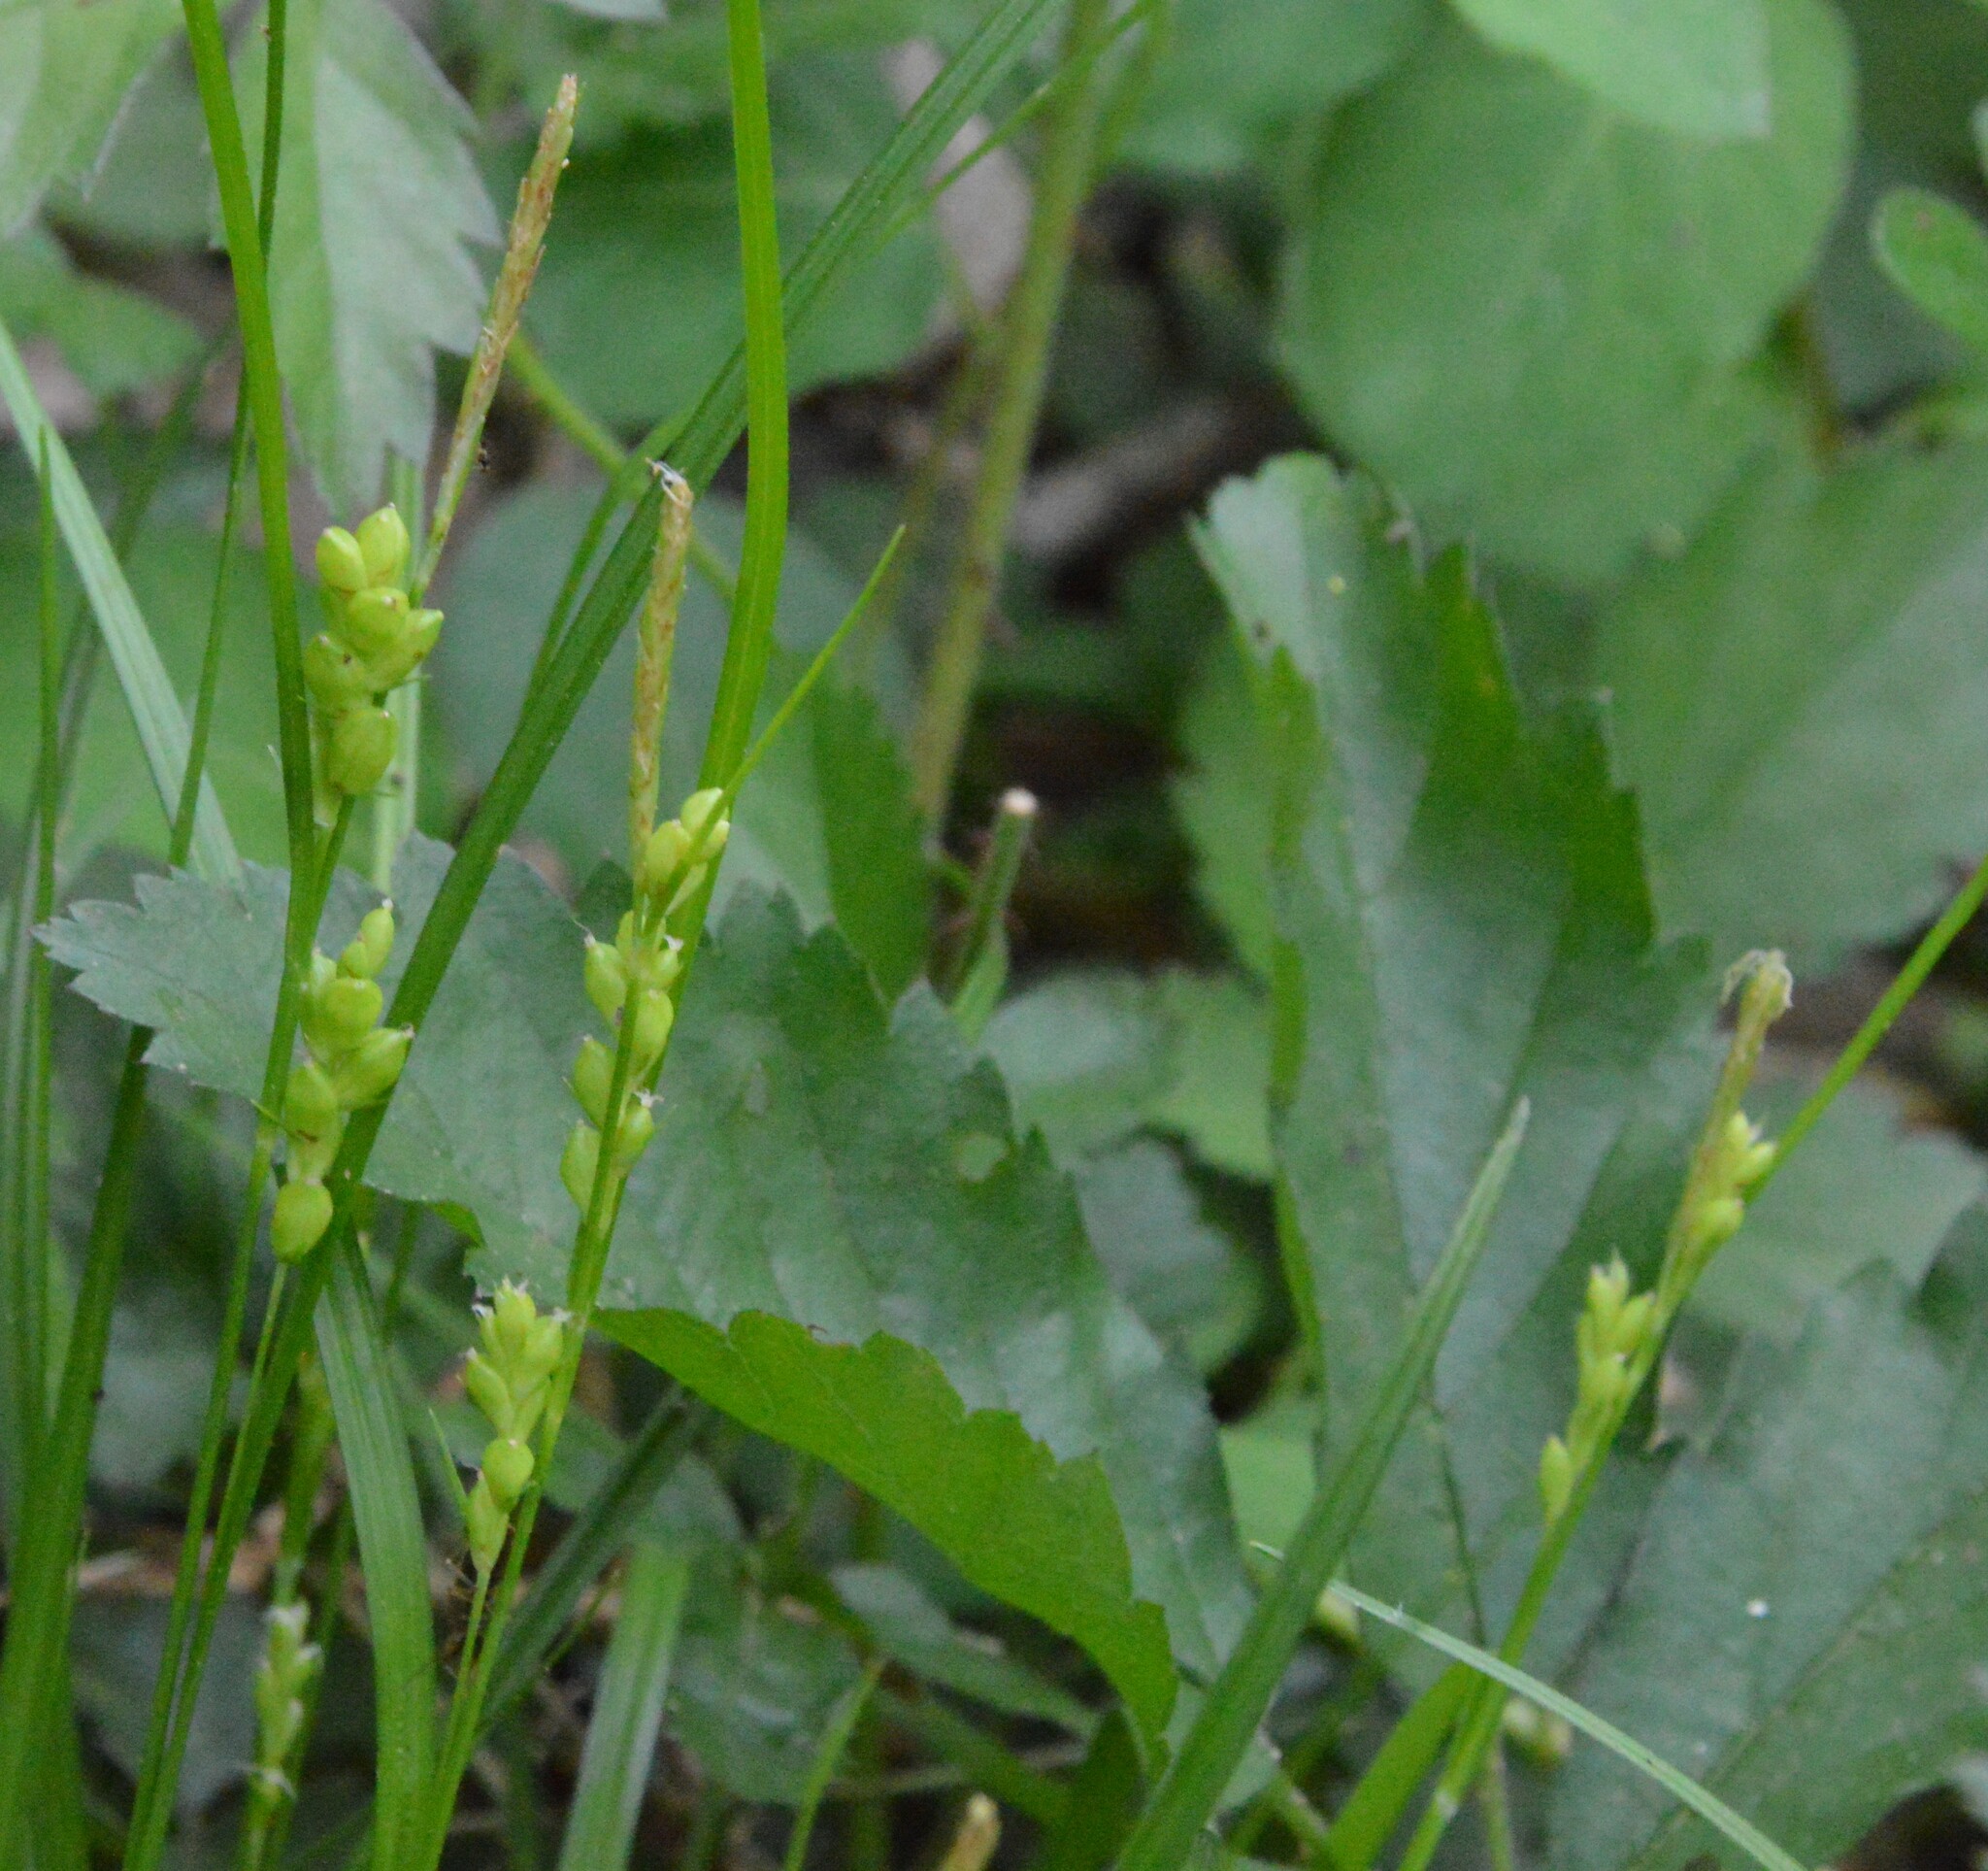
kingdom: Plantae
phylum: Tracheophyta
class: Liliopsida
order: Poales
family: Cyperaceae
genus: Carex
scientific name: Carex corrugata
